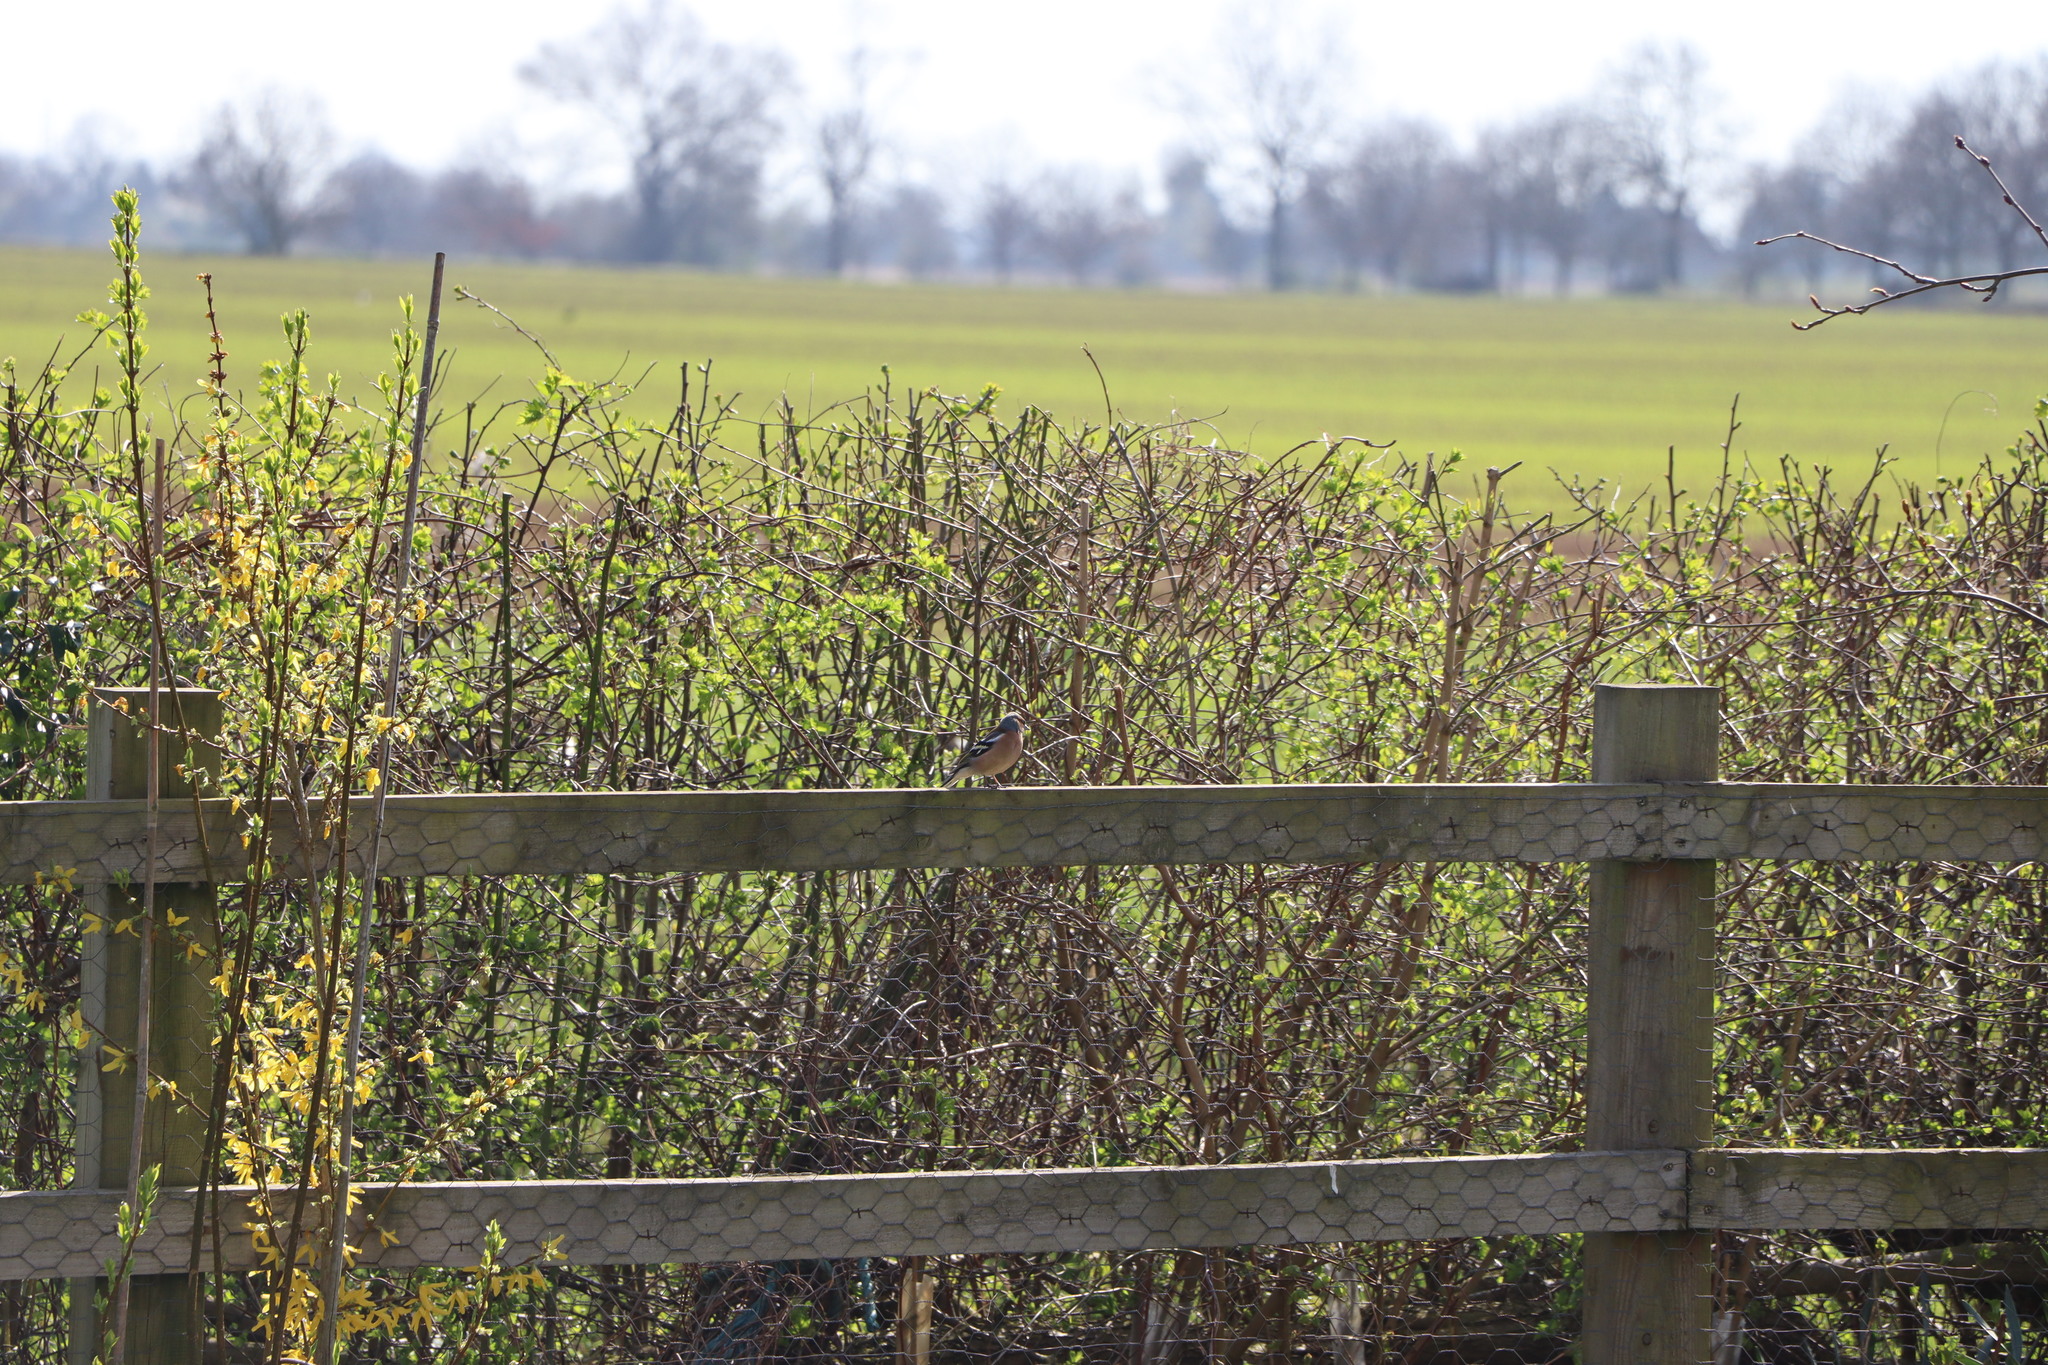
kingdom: Animalia
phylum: Chordata
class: Aves
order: Passeriformes
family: Fringillidae
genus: Fringilla
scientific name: Fringilla coelebs
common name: Common chaffinch
